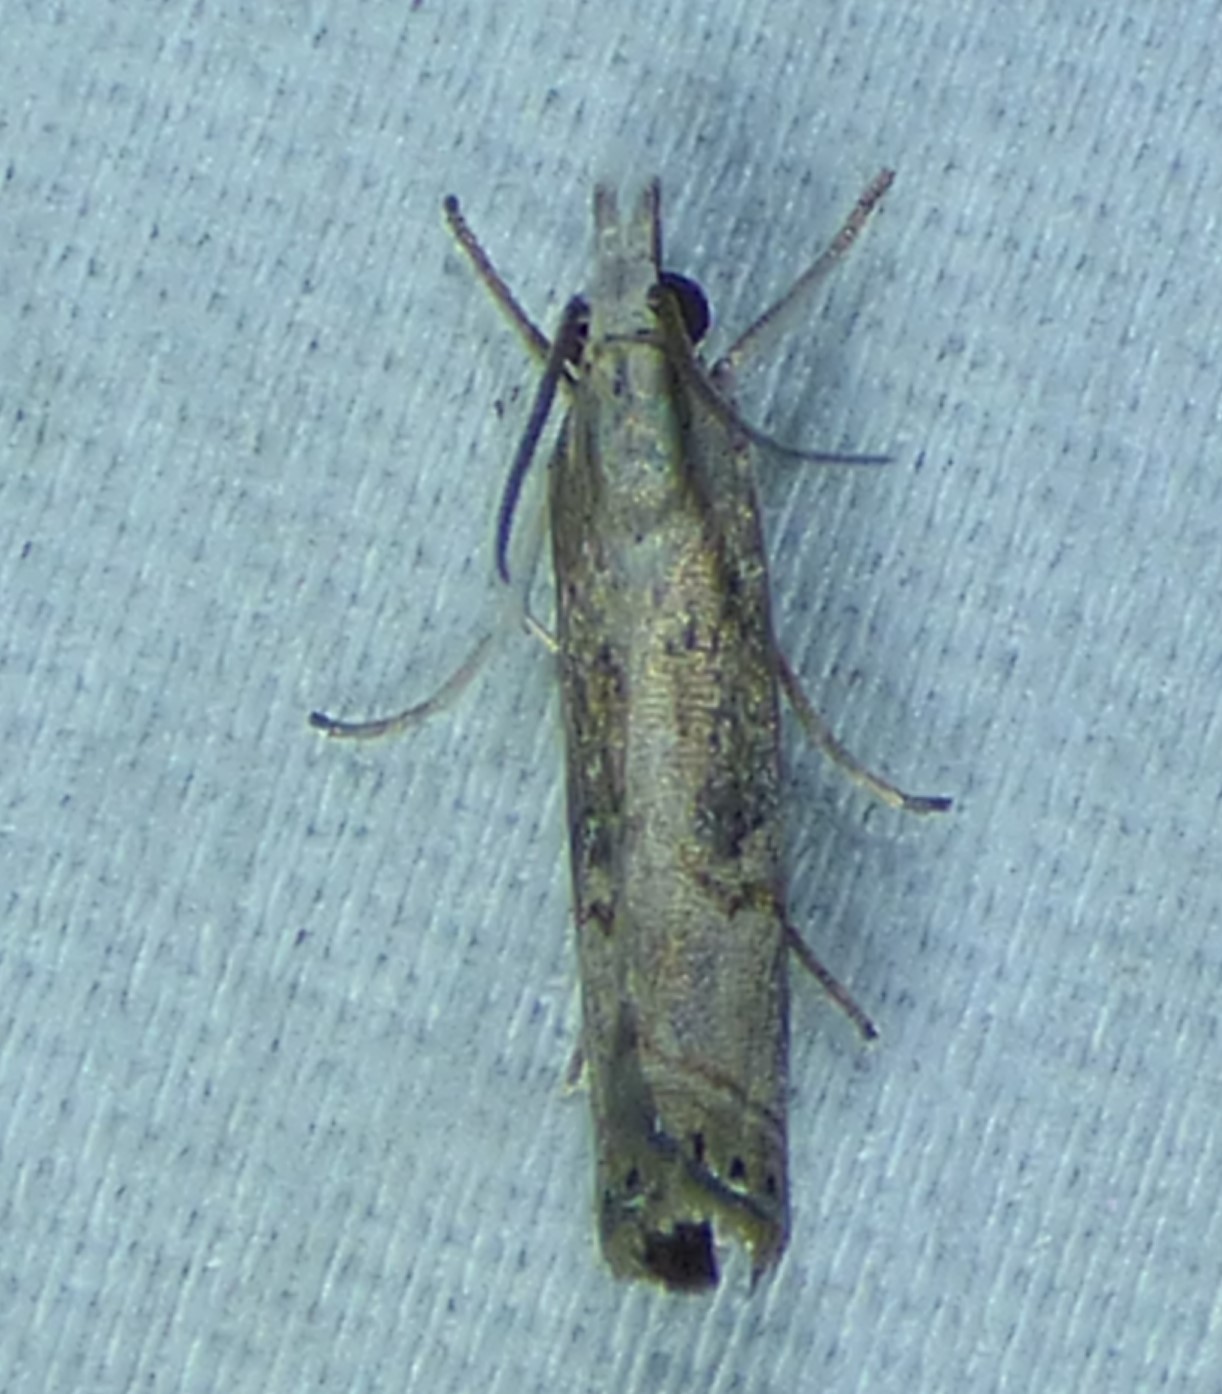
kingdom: Animalia
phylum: Arthropoda
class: Insecta
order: Lepidoptera
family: Crambidae
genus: Parapediasia
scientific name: Parapediasia teterellus
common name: Bluegrass webworm moth
